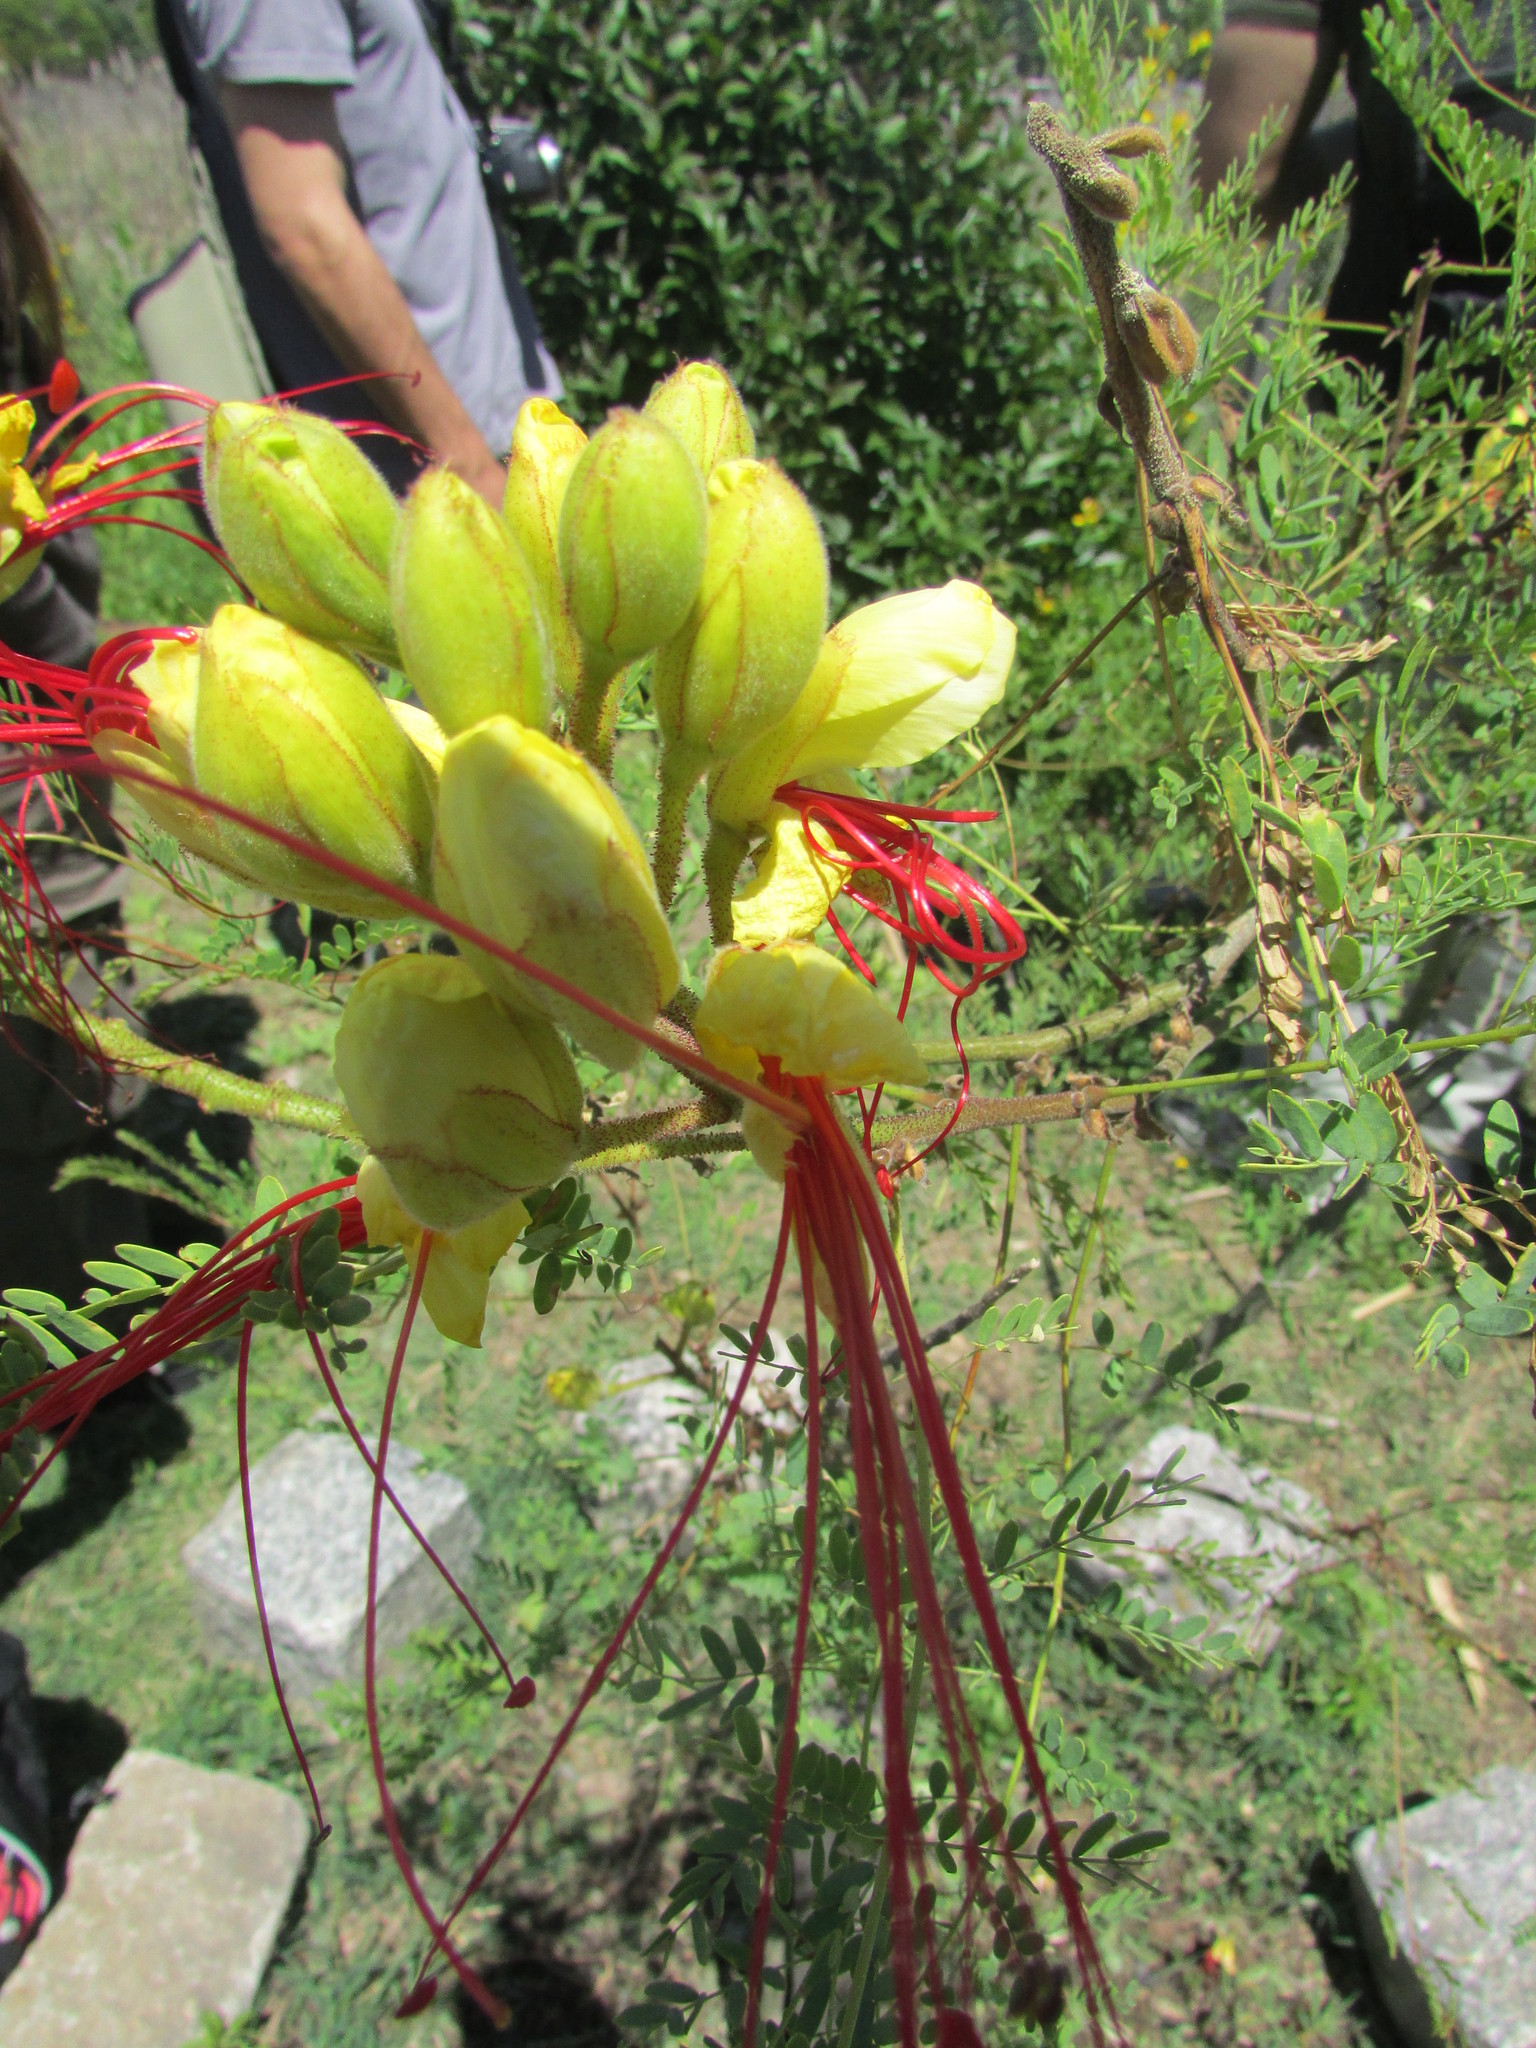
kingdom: Plantae
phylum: Tracheophyta
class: Magnoliopsida
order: Fabales
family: Fabaceae
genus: Erythrostemon
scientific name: Erythrostemon gilliesii
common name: Bird-of-paradise shrub
